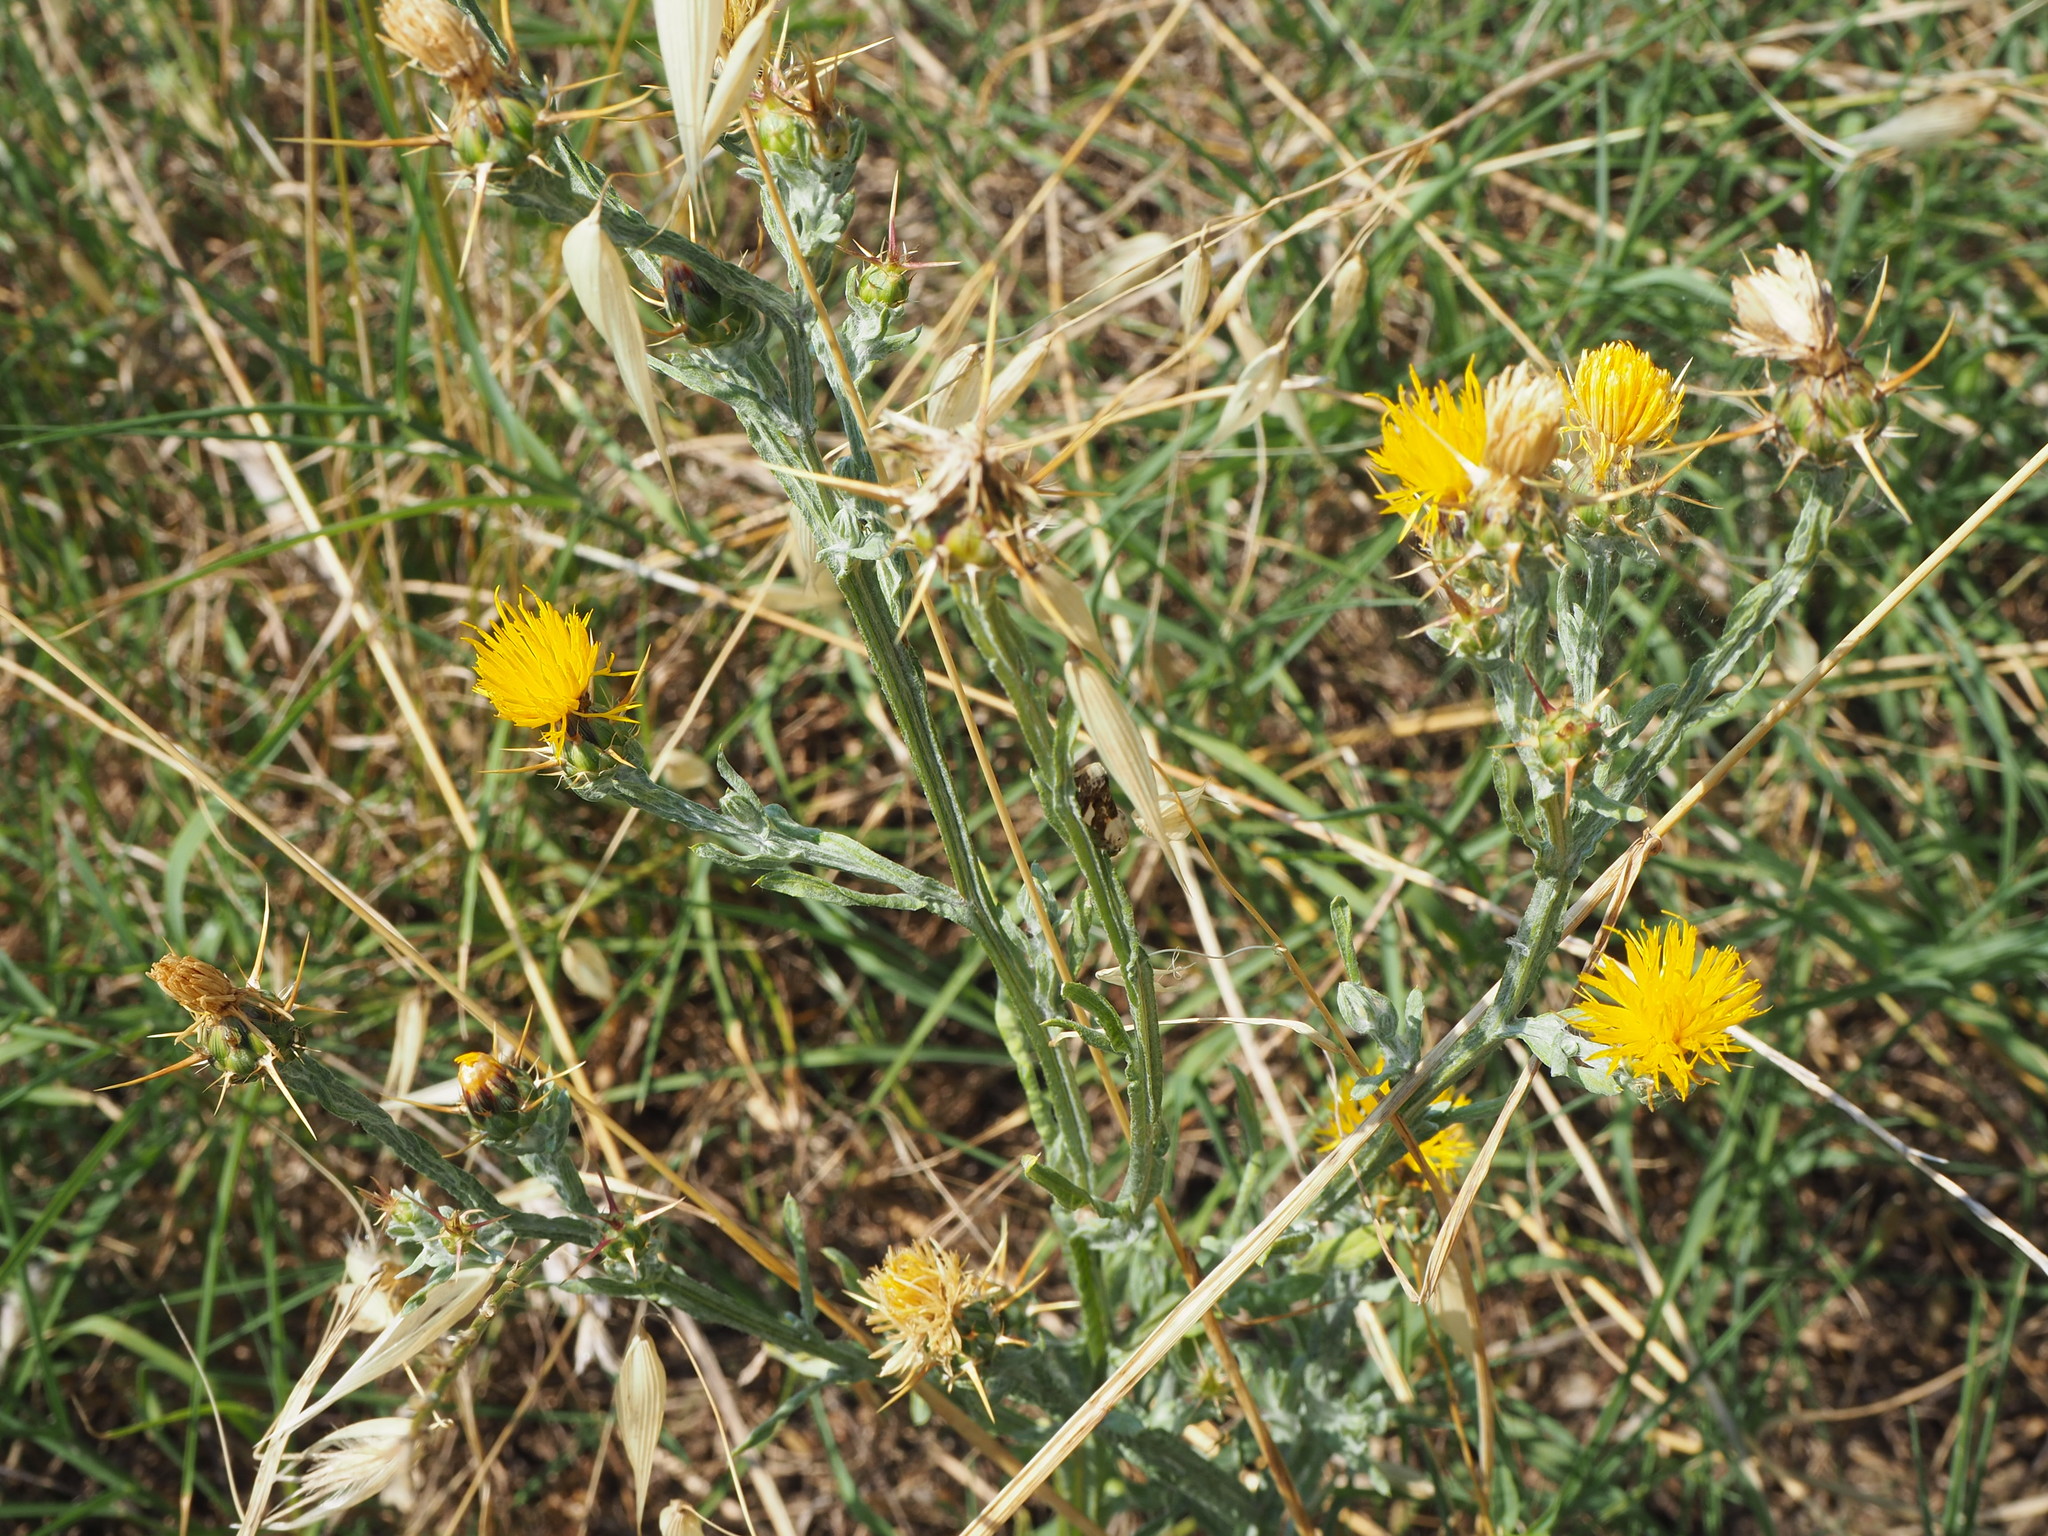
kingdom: Plantae
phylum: Tracheophyta
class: Magnoliopsida
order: Asterales
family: Asteraceae
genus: Centaurea
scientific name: Centaurea solstitialis
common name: Yellow star-thistle
